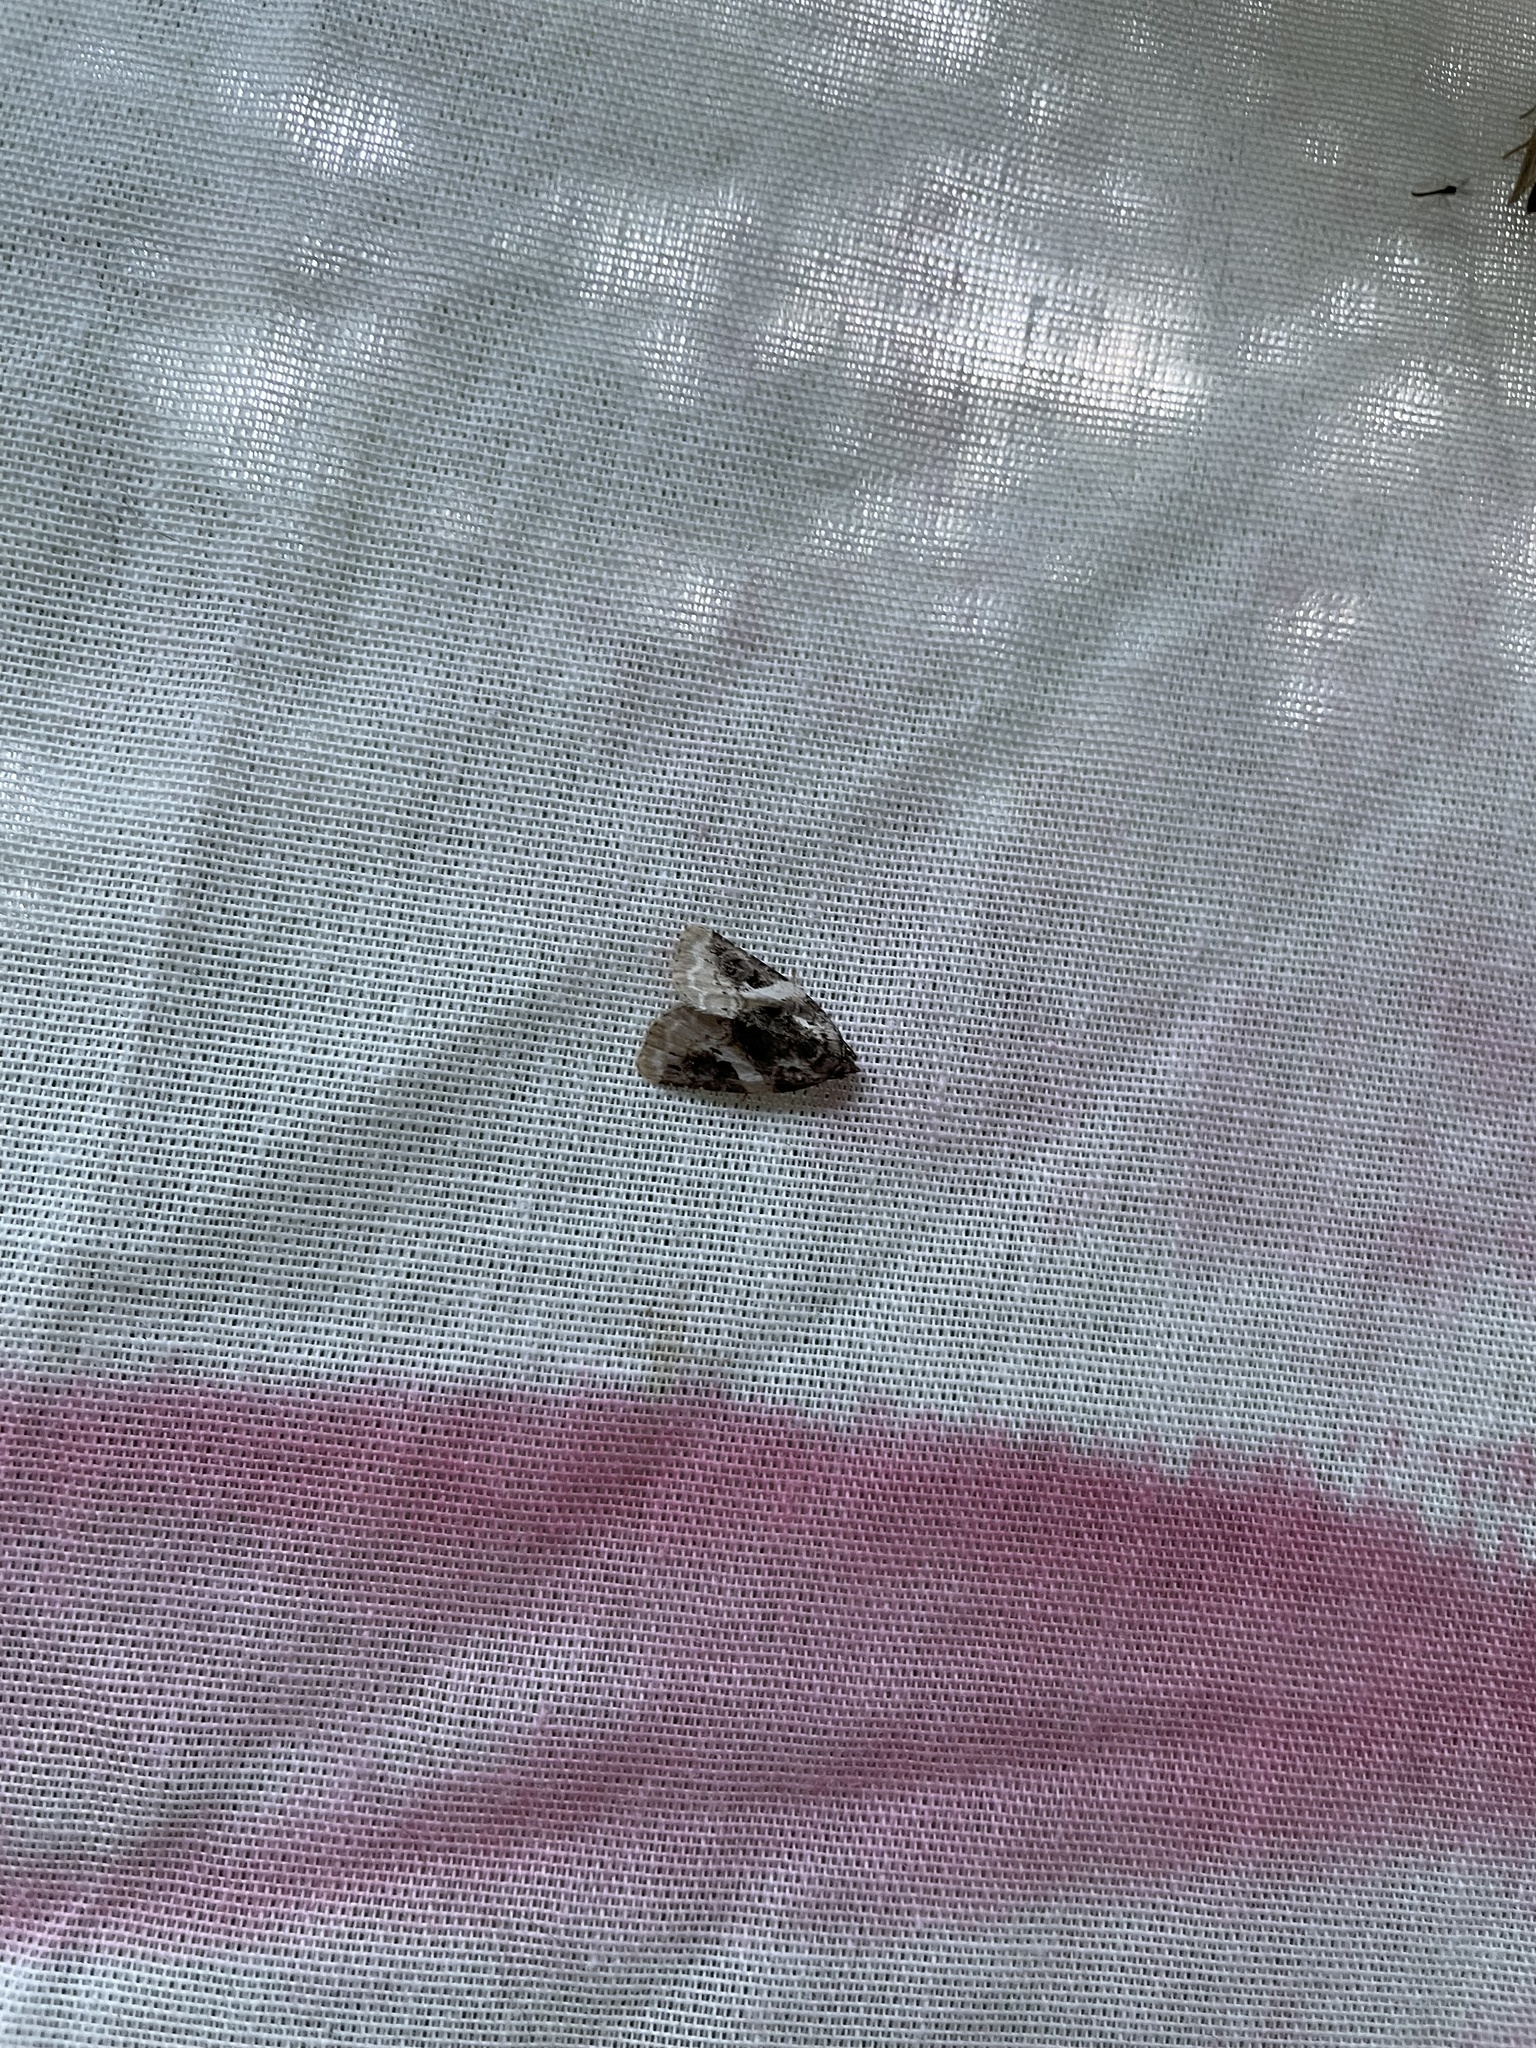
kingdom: Animalia
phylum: Arthropoda
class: Insecta
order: Lepidoptera
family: Noctuidae
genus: Pseudeustrotia
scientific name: Pseudeustrotia carneola
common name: Pink-barred lithacodia moth
